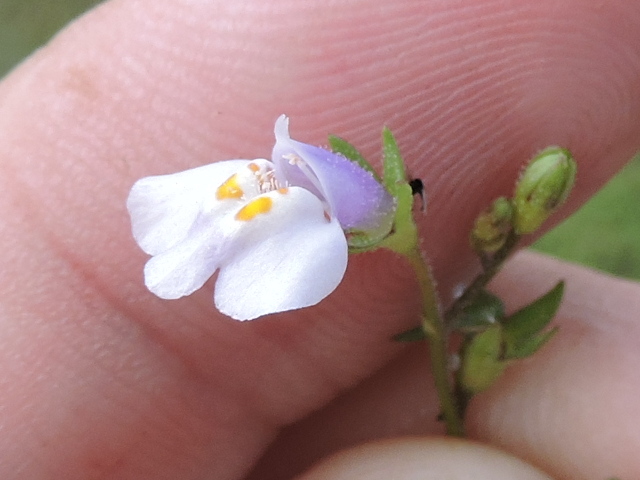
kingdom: Plantae
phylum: Tracheophyta
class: Magnoliopsida
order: Lamiales
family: Mazaceae
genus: Mazus
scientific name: Mazus pumilus
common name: Japanese mazus
